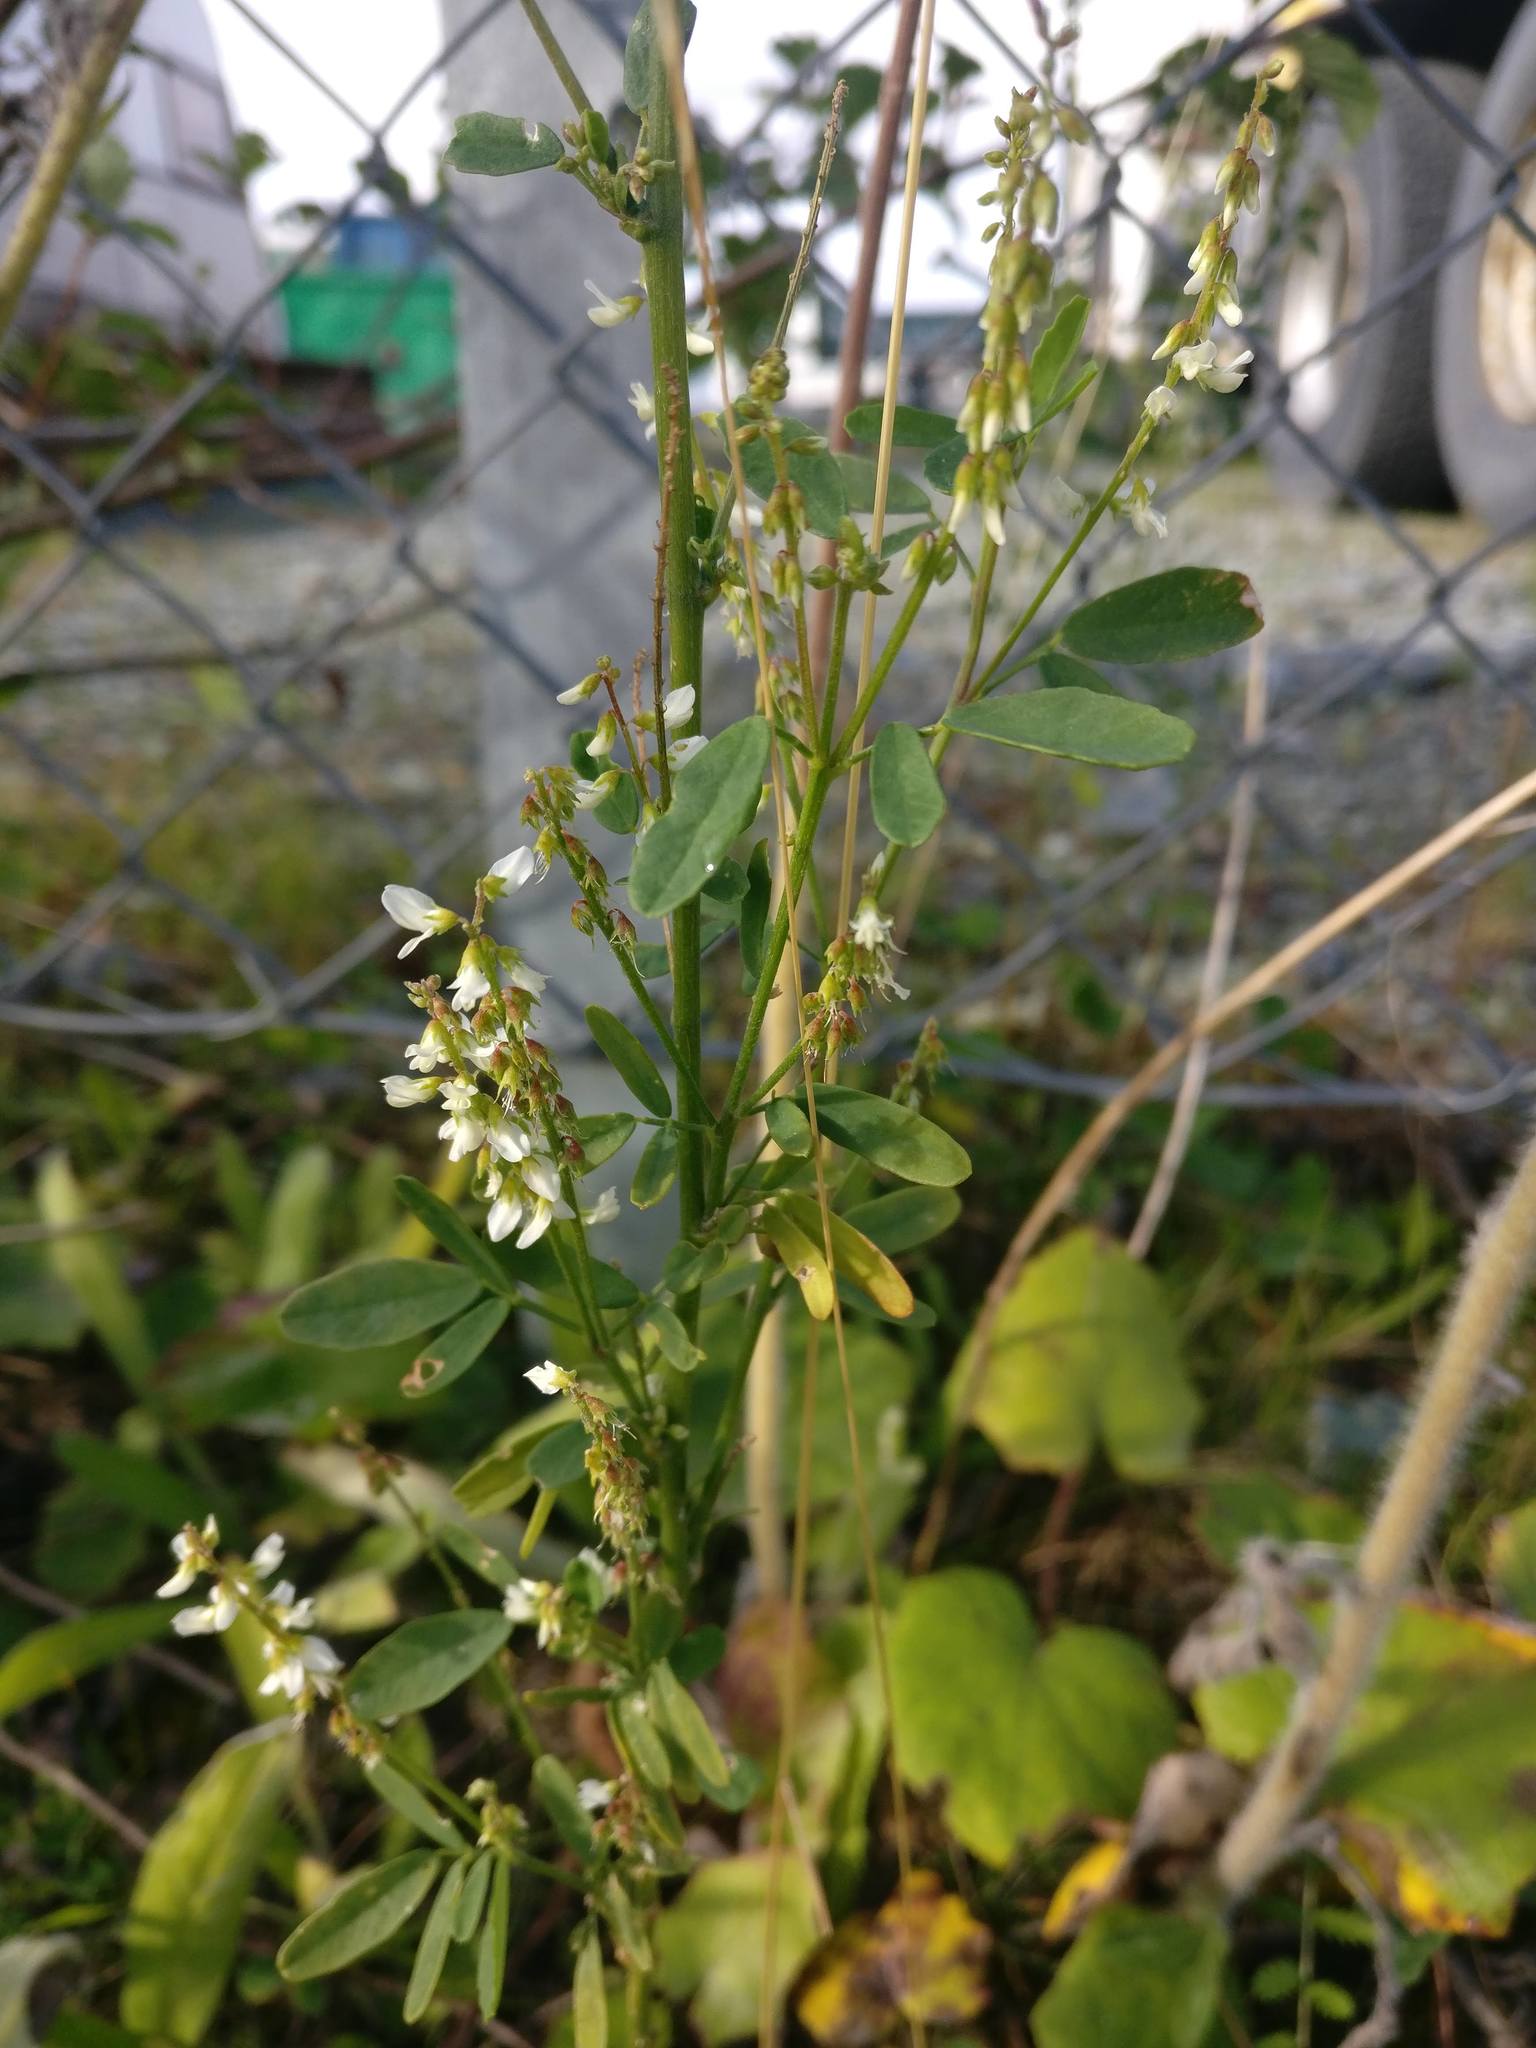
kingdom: Plantae
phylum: Tracheophyta
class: Magnoliopsida
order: Fabales
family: Fabaceae
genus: Melilotus
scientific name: Melilotus albus
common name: White melilot
